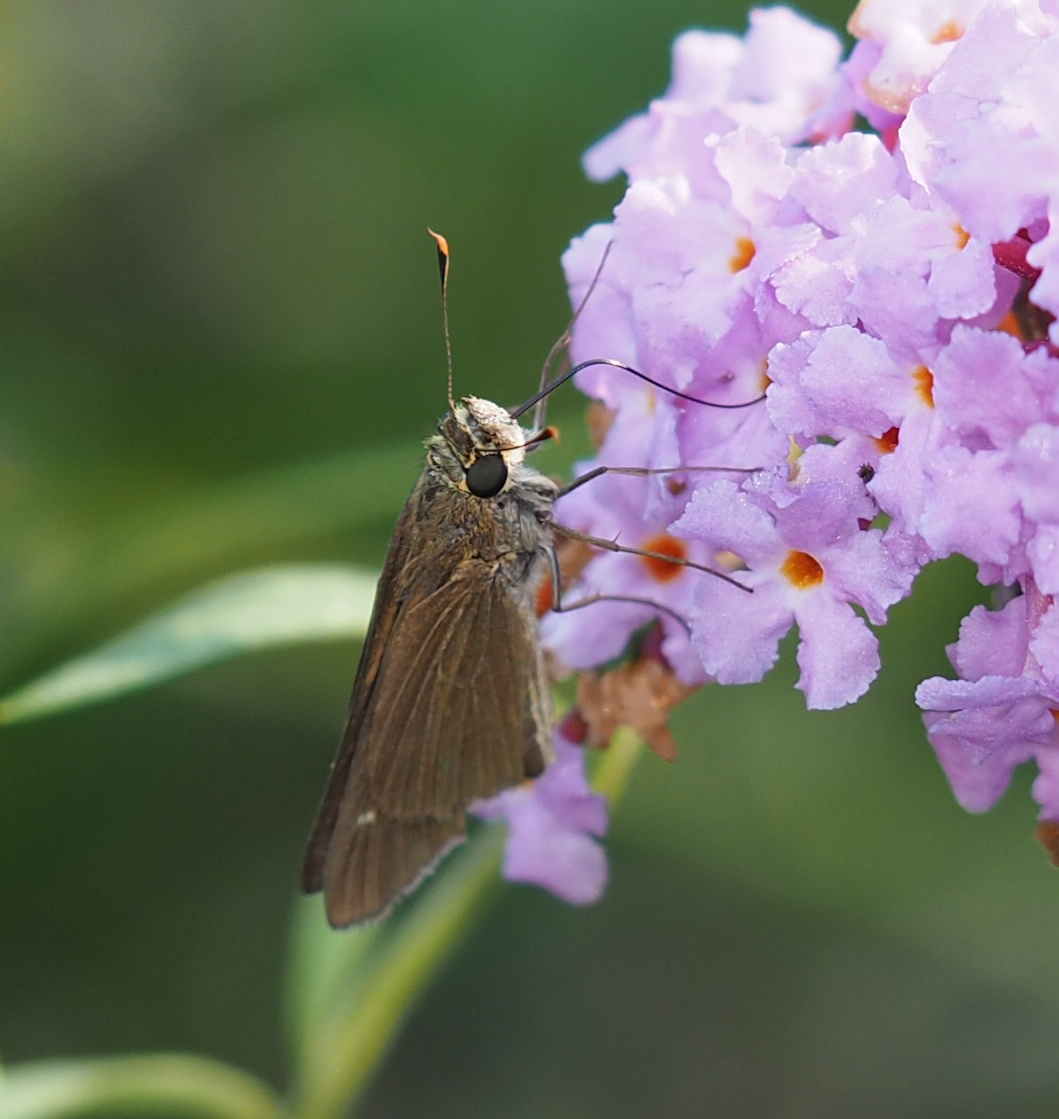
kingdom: Animalia
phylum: Arthropoda
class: Insecta
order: Lepidoptera
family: Hesperiidae
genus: Panoquina
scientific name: Panoquina ocola
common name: Ocola skipper
